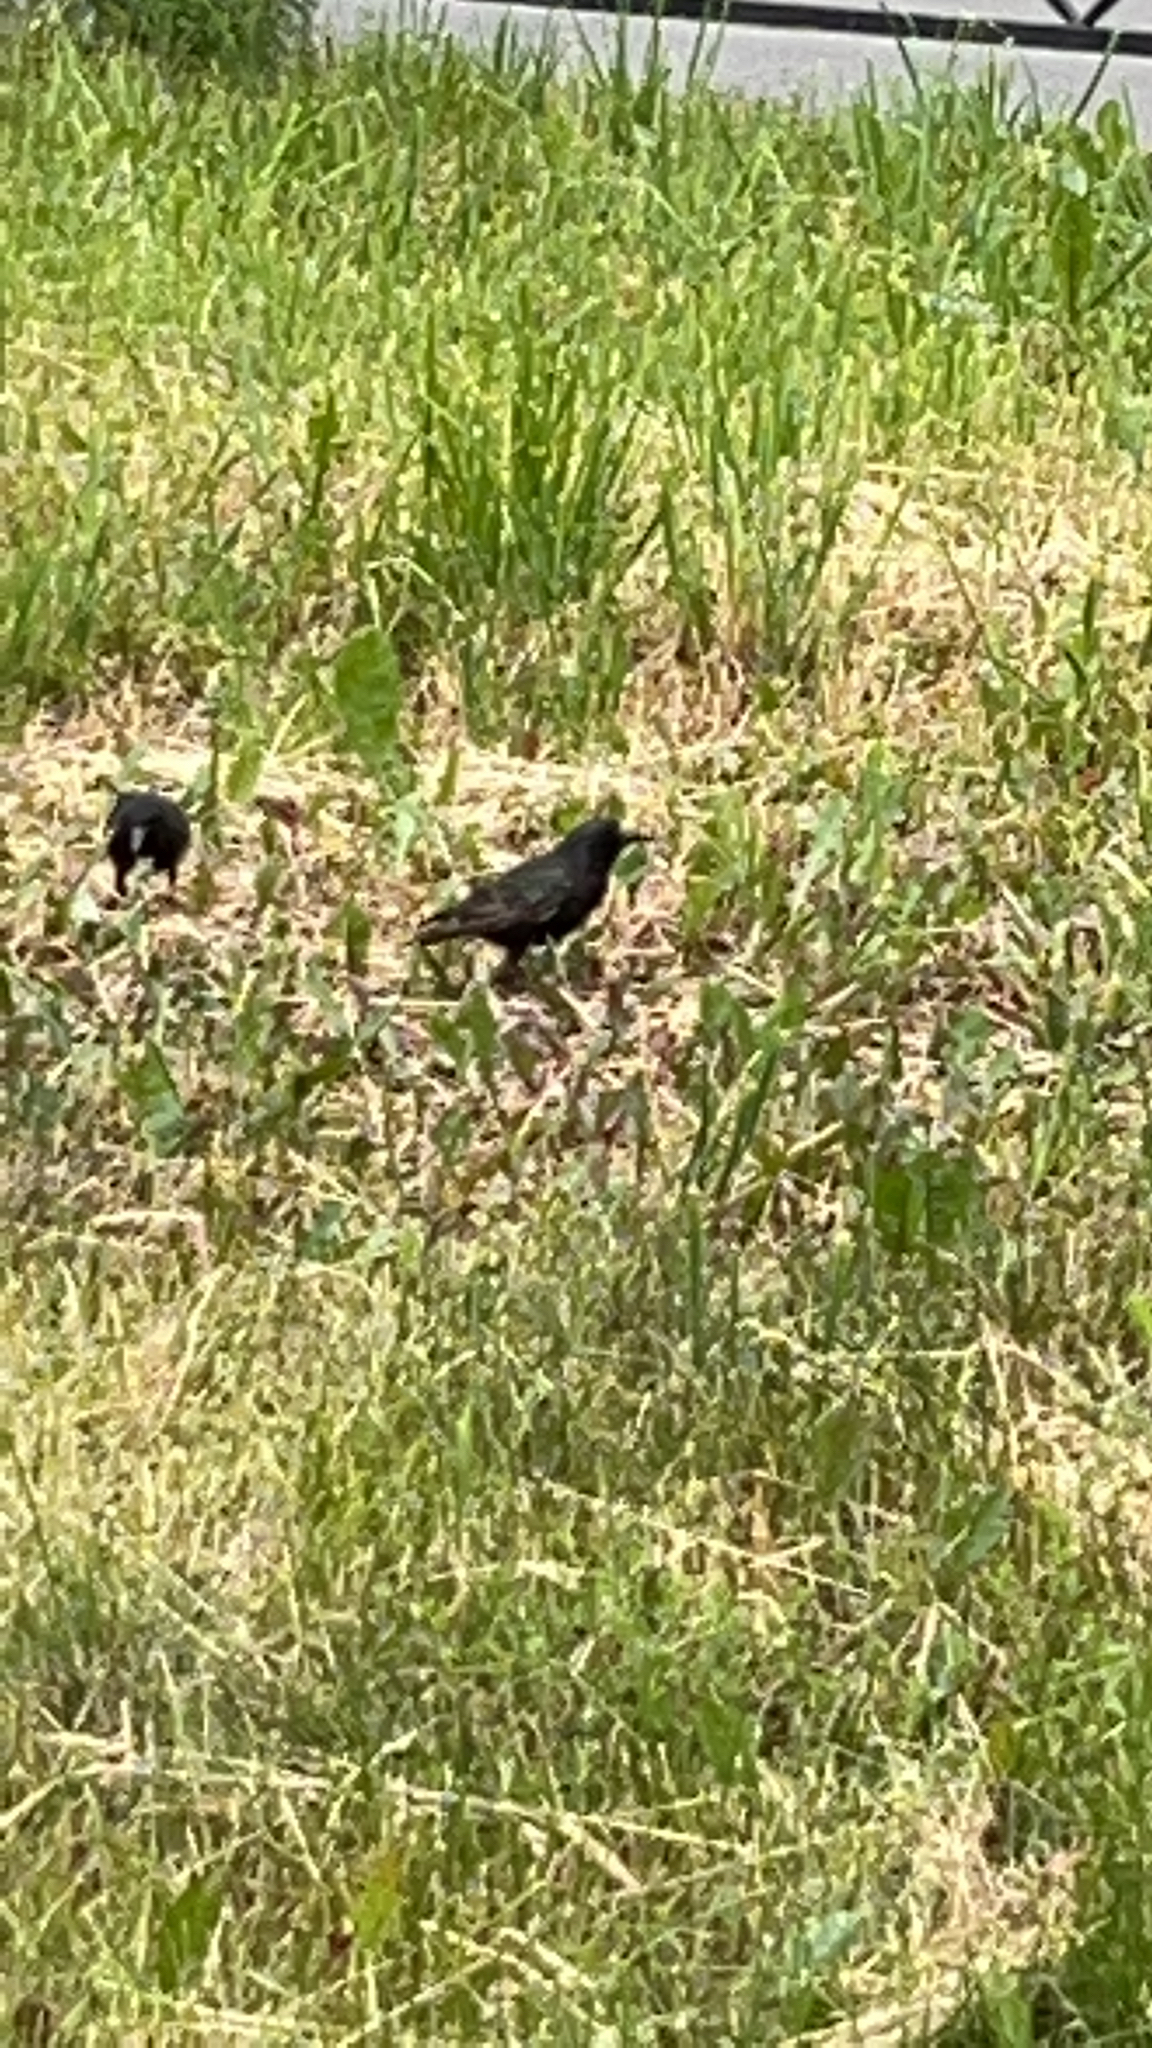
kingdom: Animalia
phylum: Chordata
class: Aves
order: Passeriformes
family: Sturnidae
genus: Sturnus
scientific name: Sturnus vulgaris
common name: Common starling
